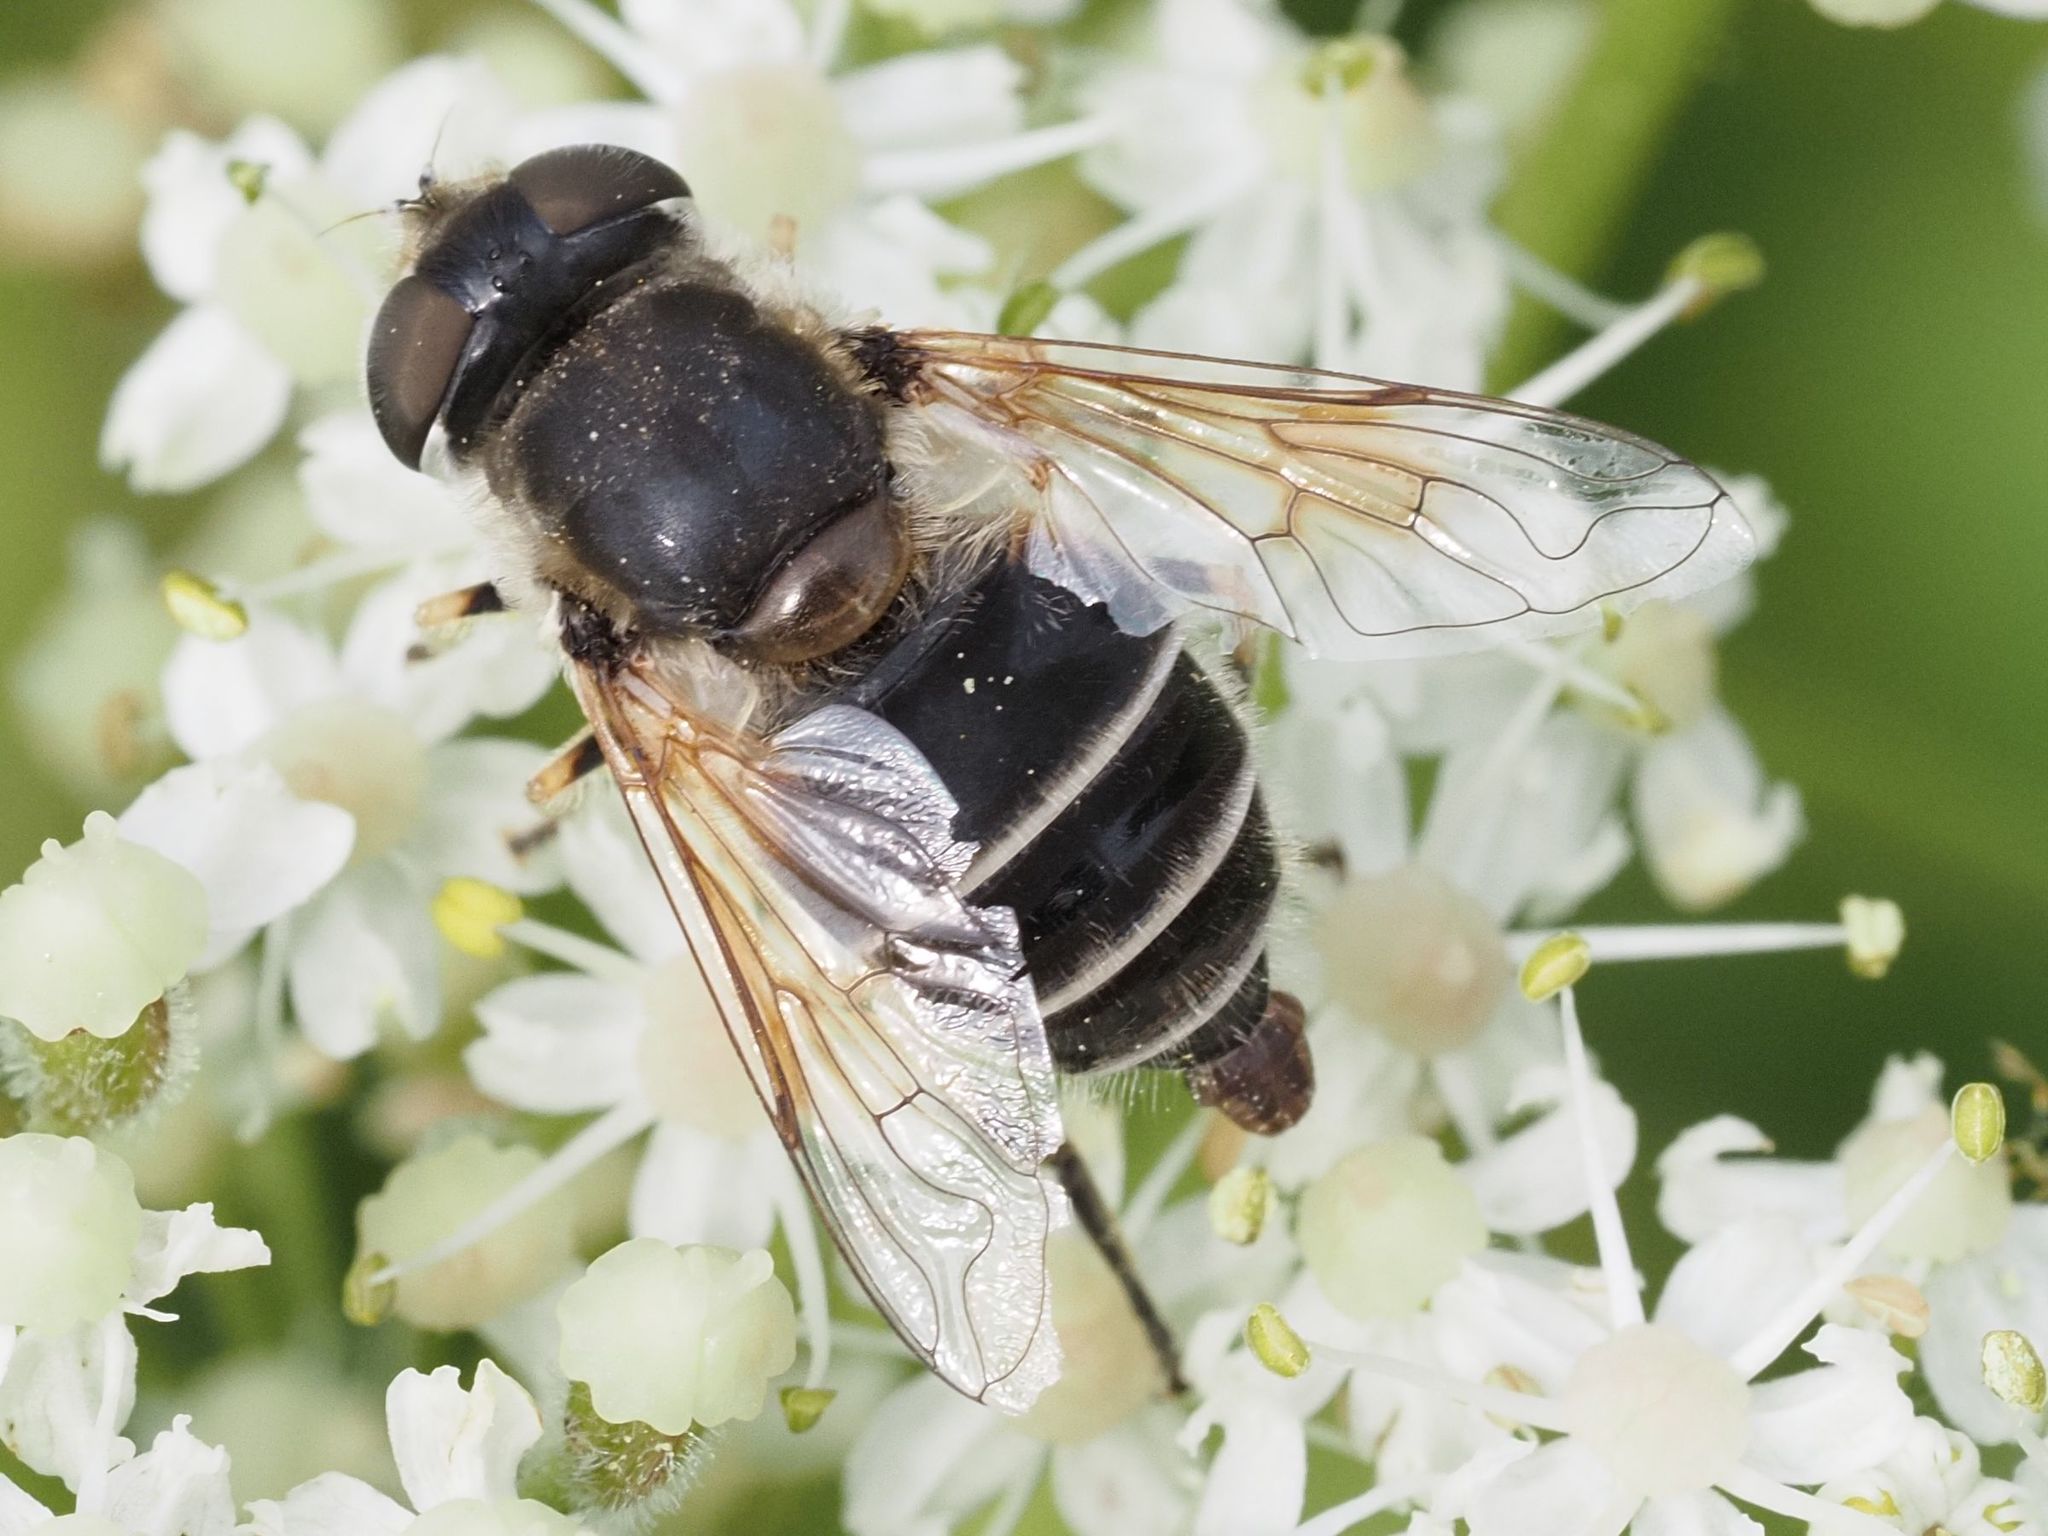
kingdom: Animalia
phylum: Arthropoda
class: Insecta
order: Diptera
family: Syrphidae
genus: Eristalis
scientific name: Eristalis arbustorum
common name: Hover fly
